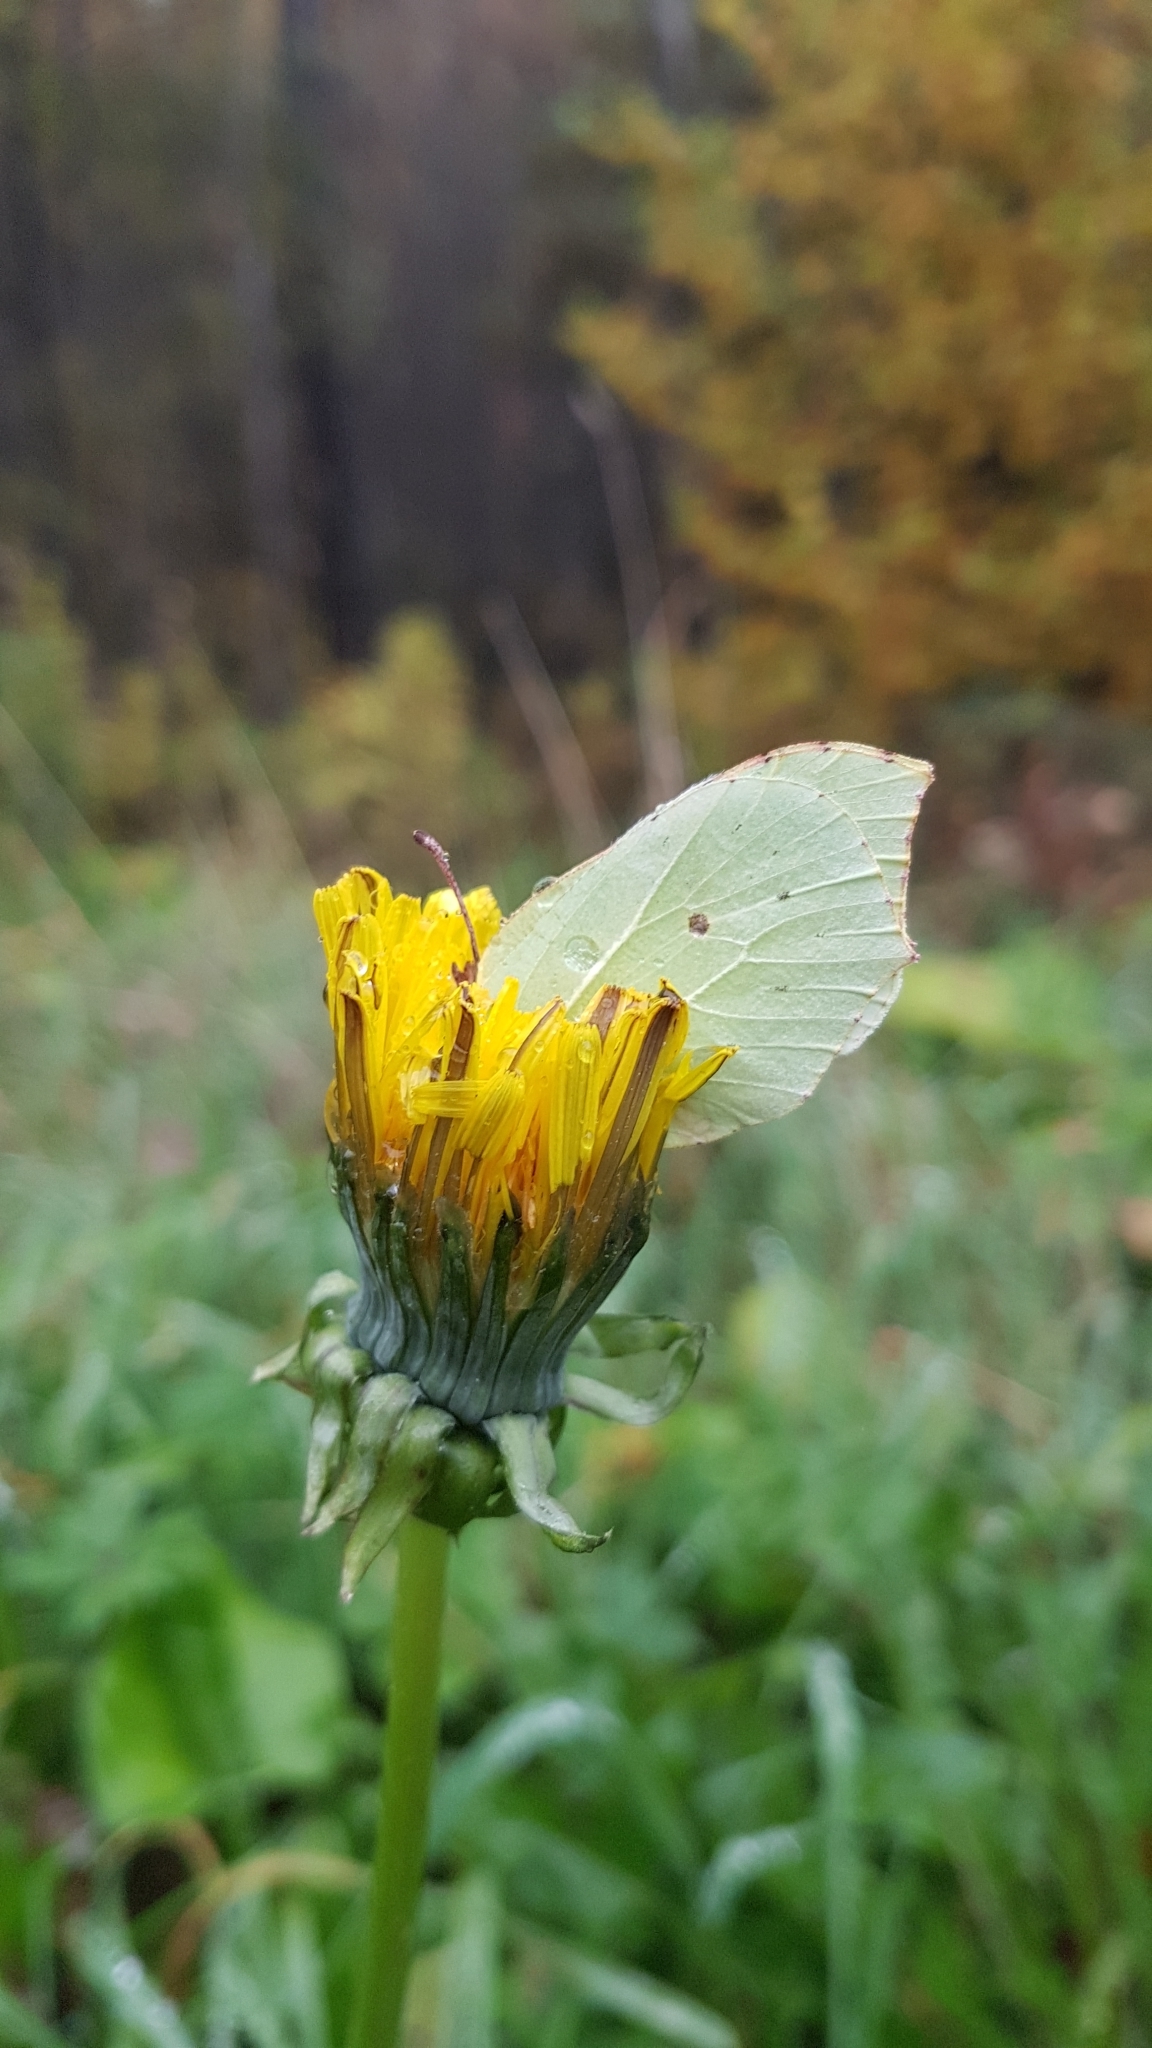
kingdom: Animalia
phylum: Arthropoda
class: Insecta
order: Lepidoptera
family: Pieridae
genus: Gonepteryx
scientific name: Gonepteryx rhamni
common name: Brimstone
